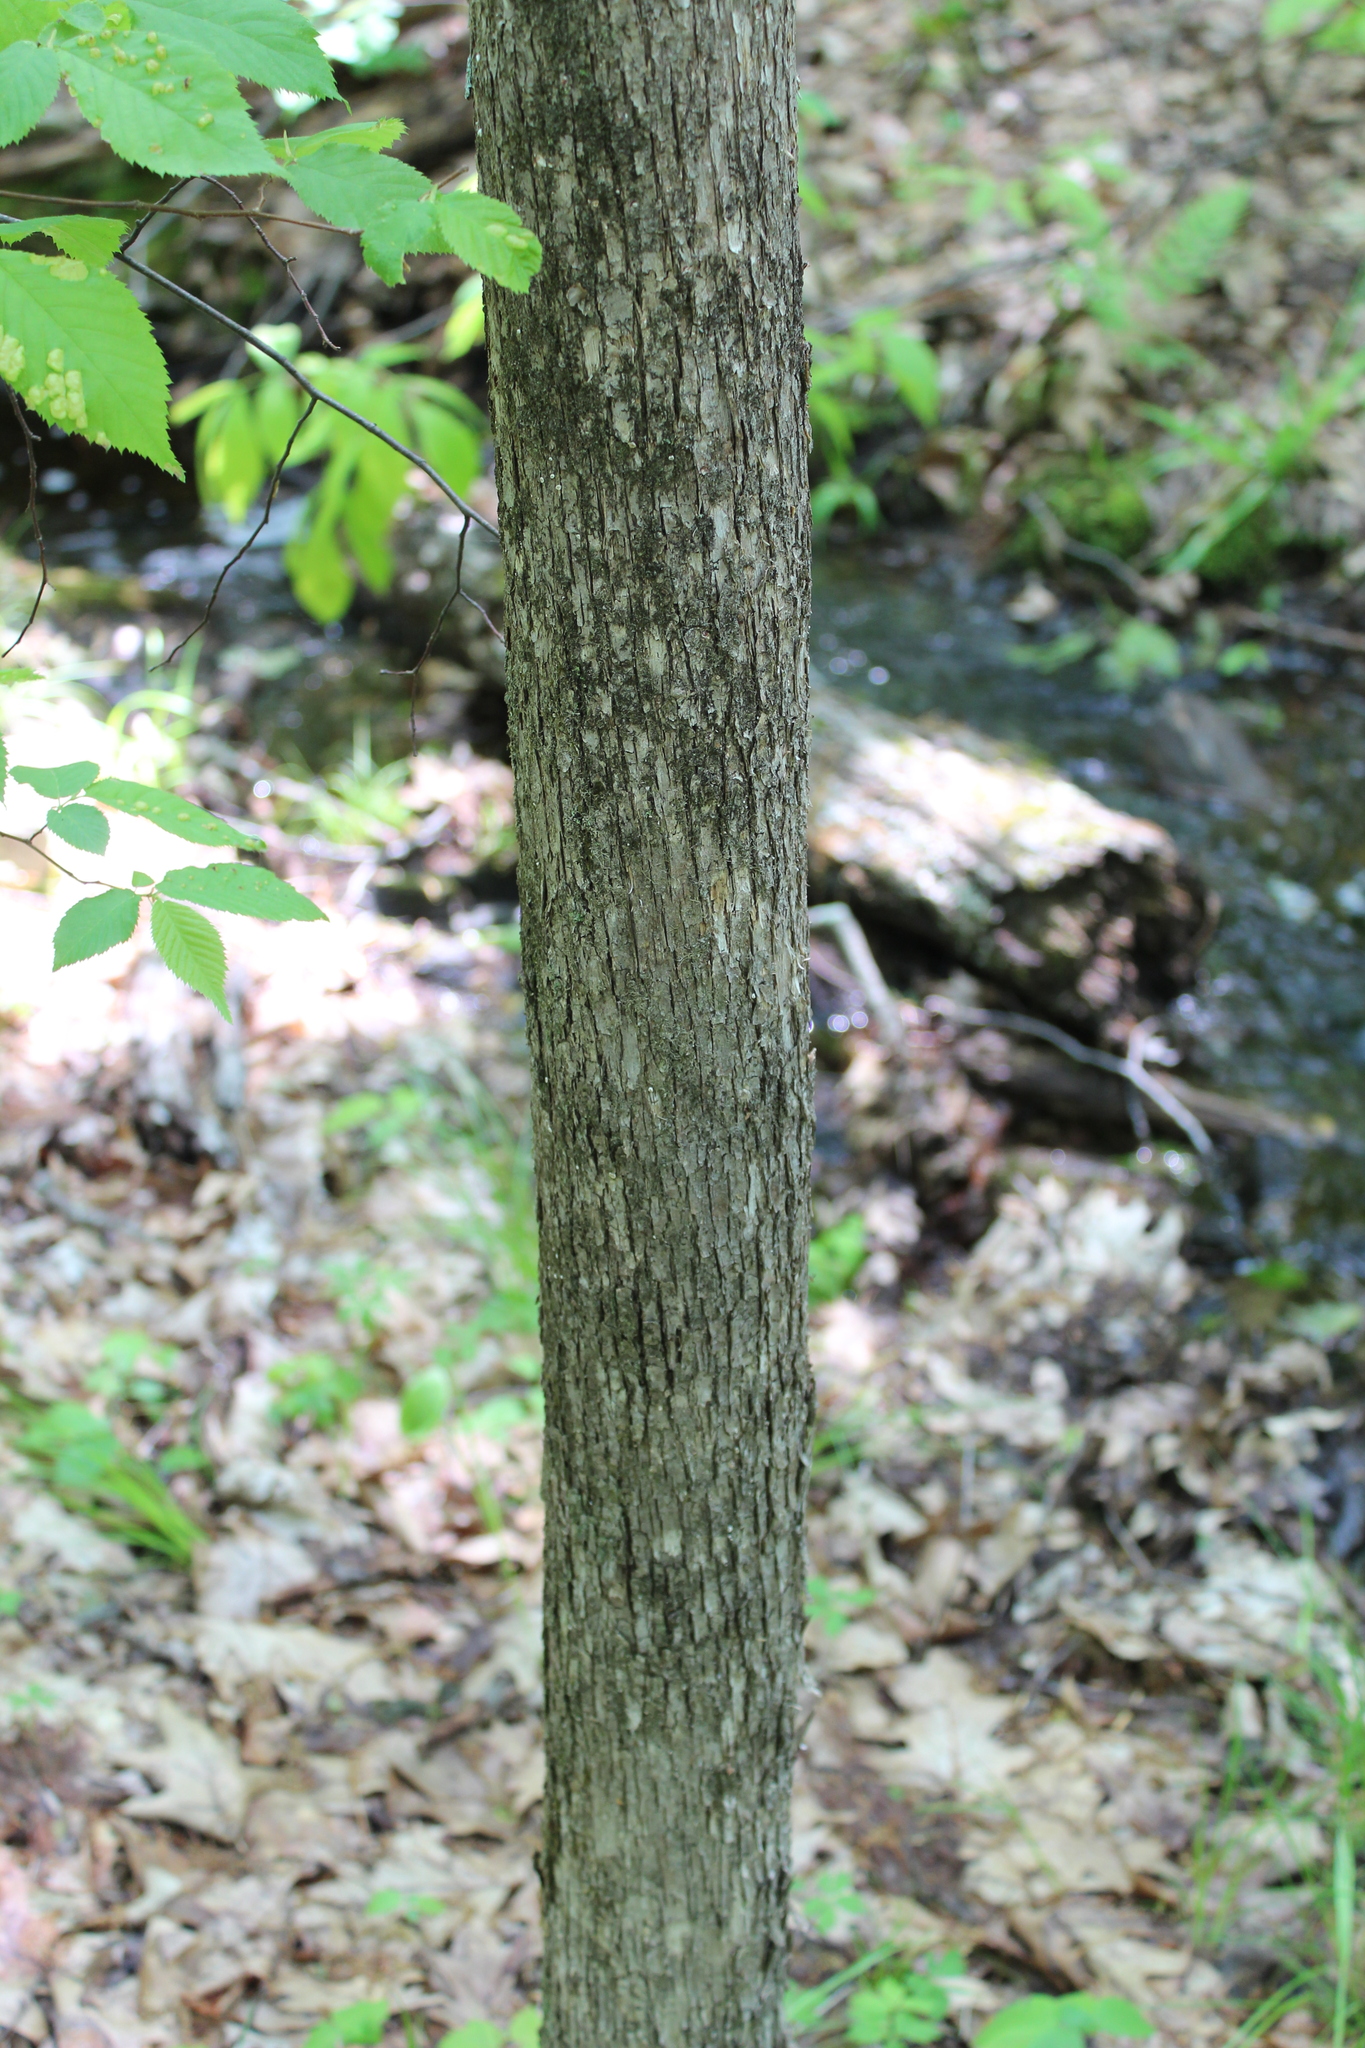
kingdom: Plantae
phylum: Tracheophyta
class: Magnoliopsida
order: Fagales
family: Betulaceae
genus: Ostrya
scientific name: Ostrya virginiana
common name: Ironwood
